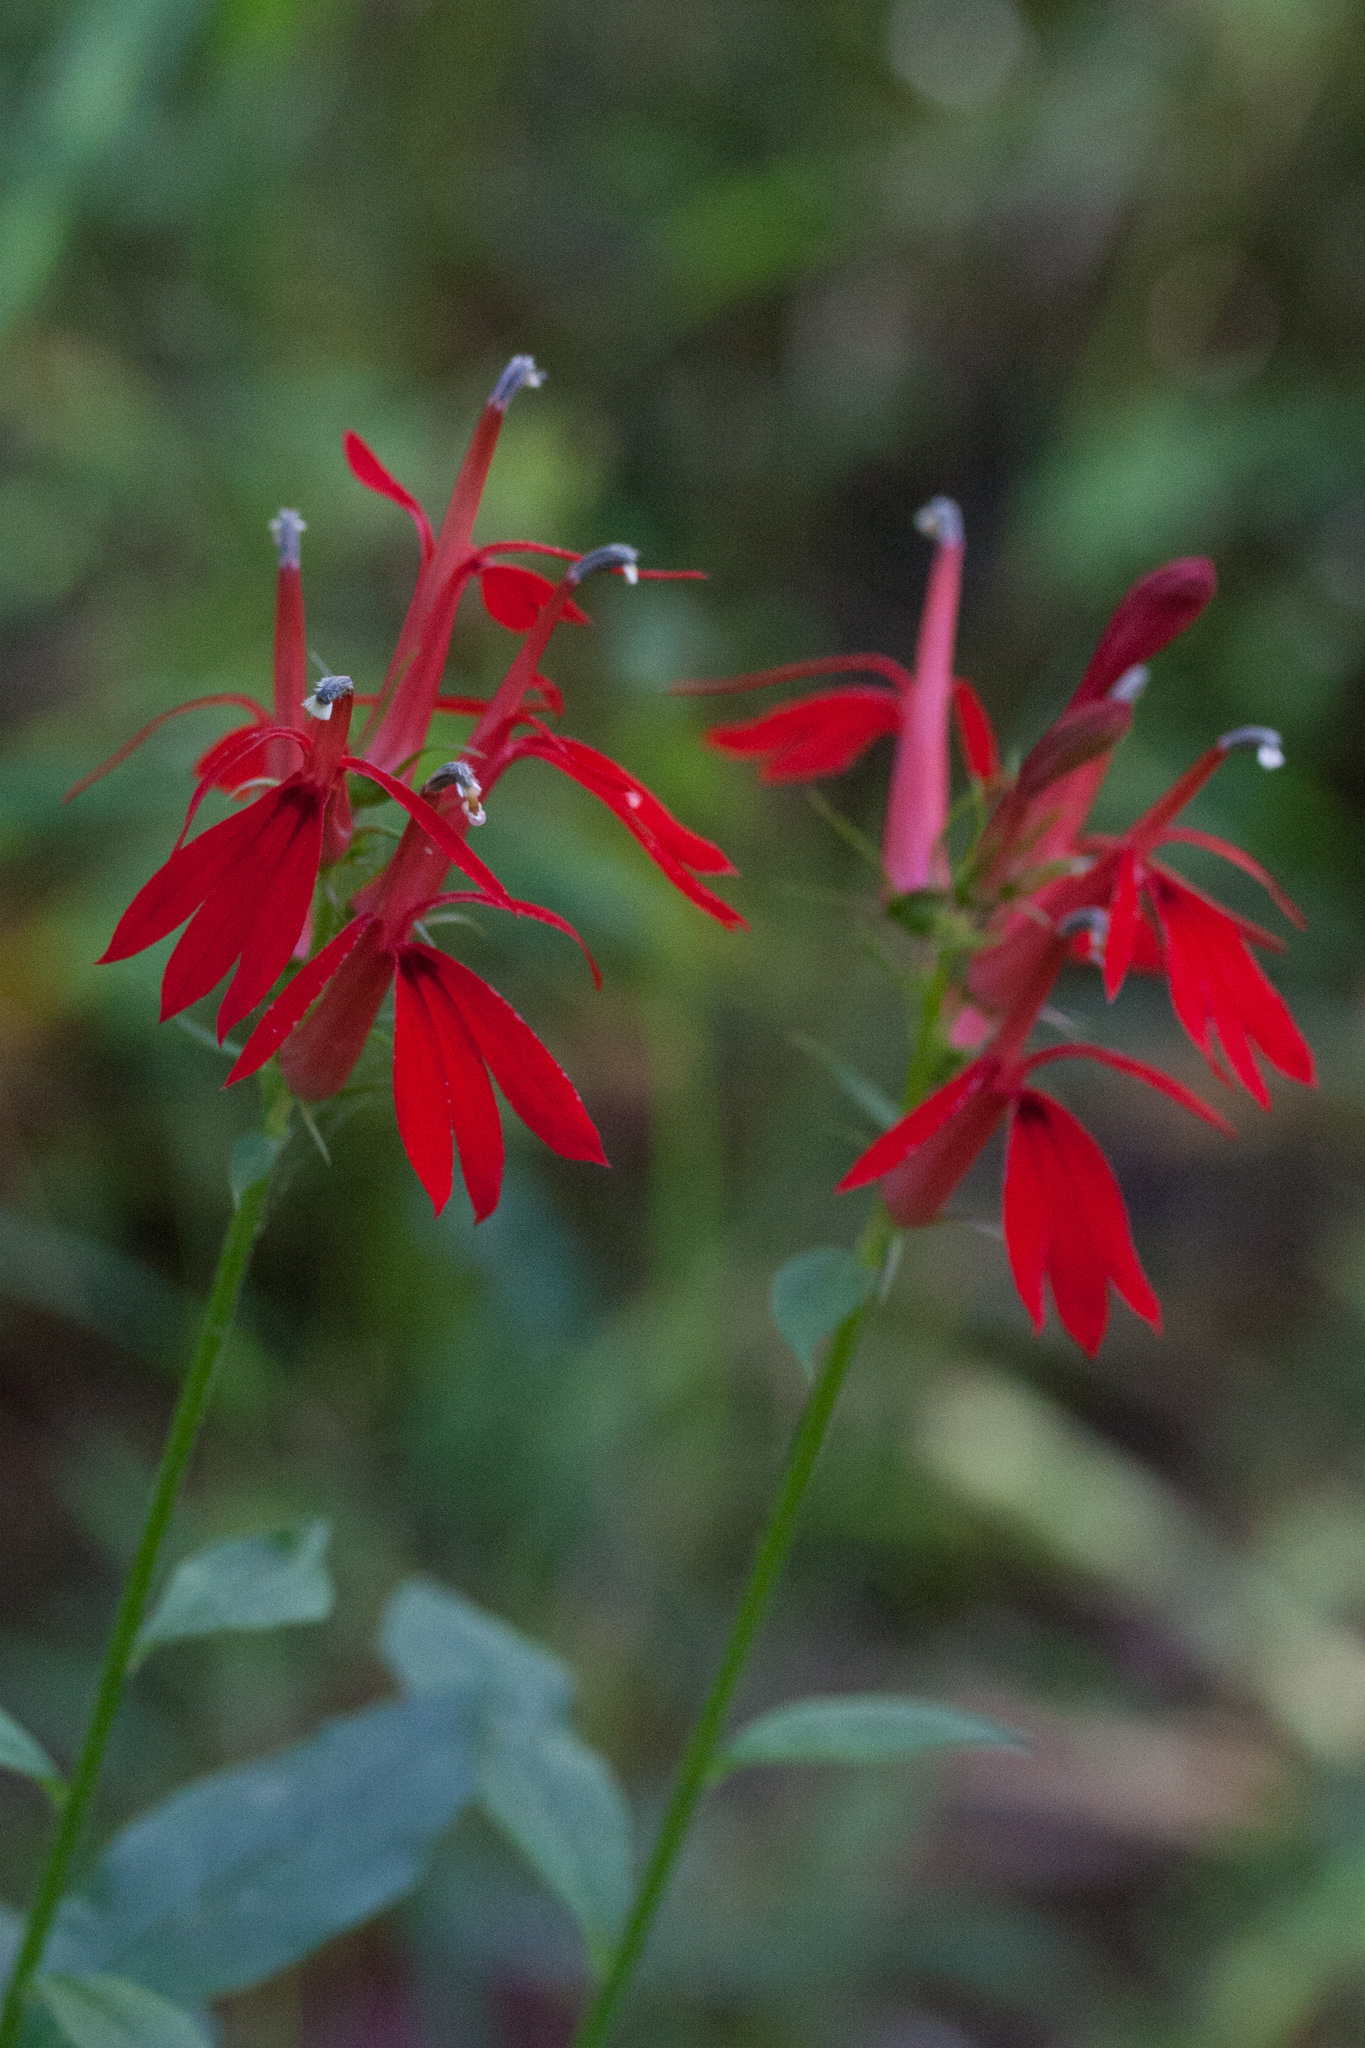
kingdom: Plantae
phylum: Tracheophyta
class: Magnoliopsida
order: Asterales
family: Campanulaceae
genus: Lobelia
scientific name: Lobelia cardinalis
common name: Cardinal flower
